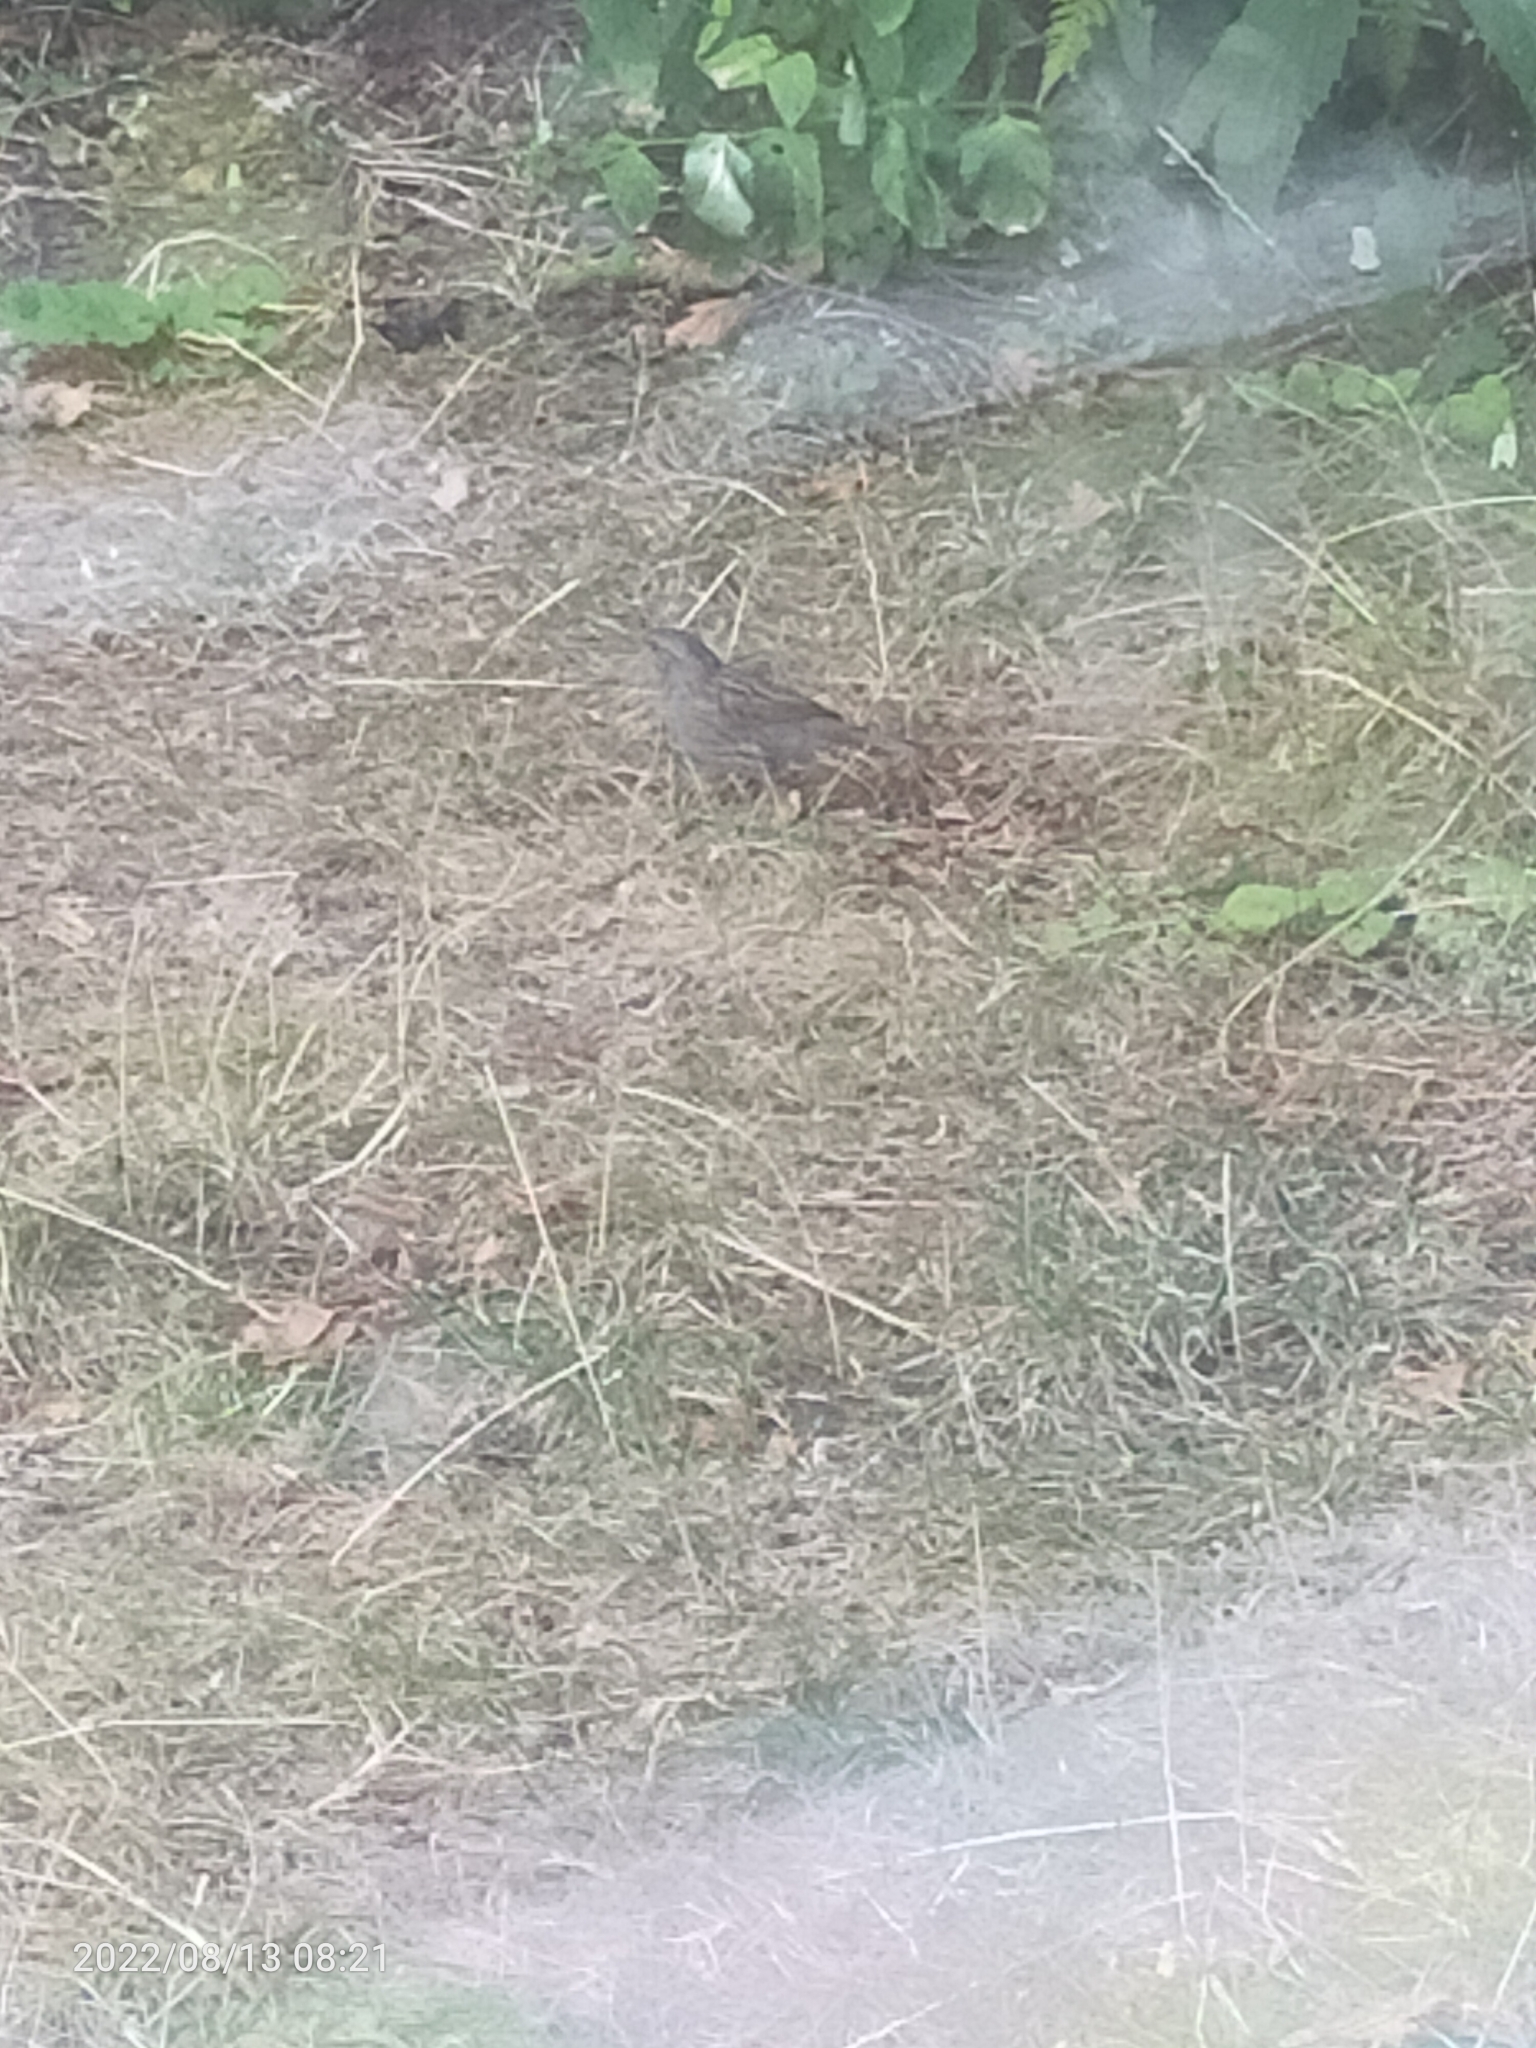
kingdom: Animalia
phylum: Chordata
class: Aves
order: Passeriformes
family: Prunellidae
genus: Prunella
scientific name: Prunella modularis
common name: Dunnock
